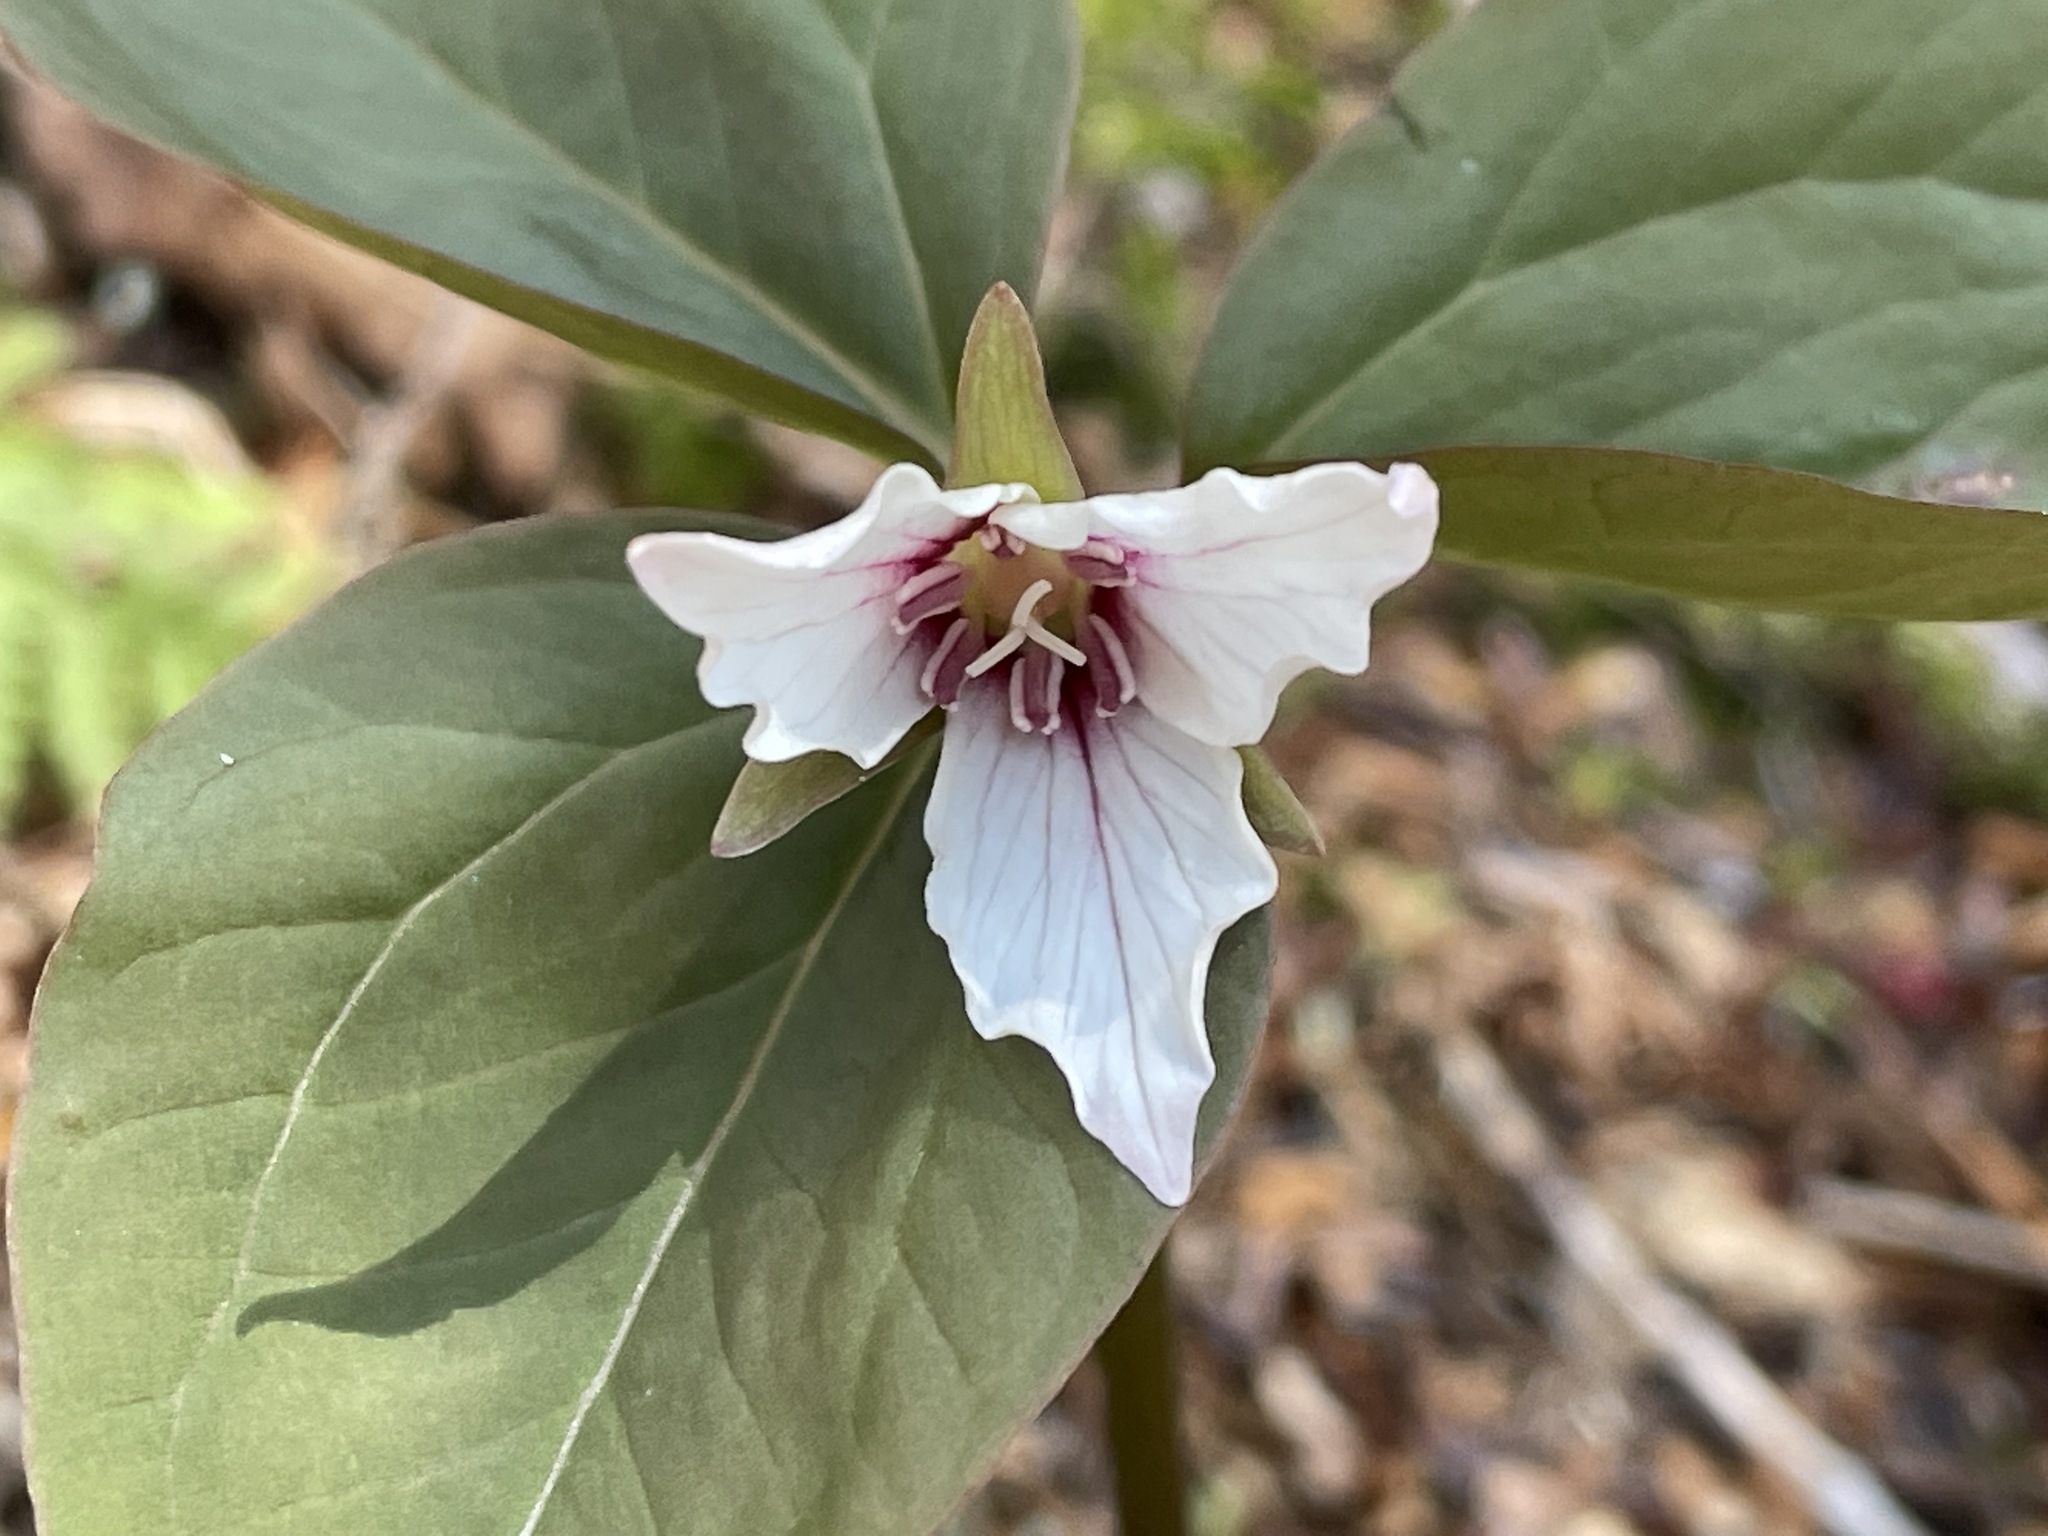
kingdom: Plantae
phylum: Tracheophyta
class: Liliopsida
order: Liliales
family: Melanthiaceae
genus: Trillium
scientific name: Trillium undulatum
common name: Paint trillium
